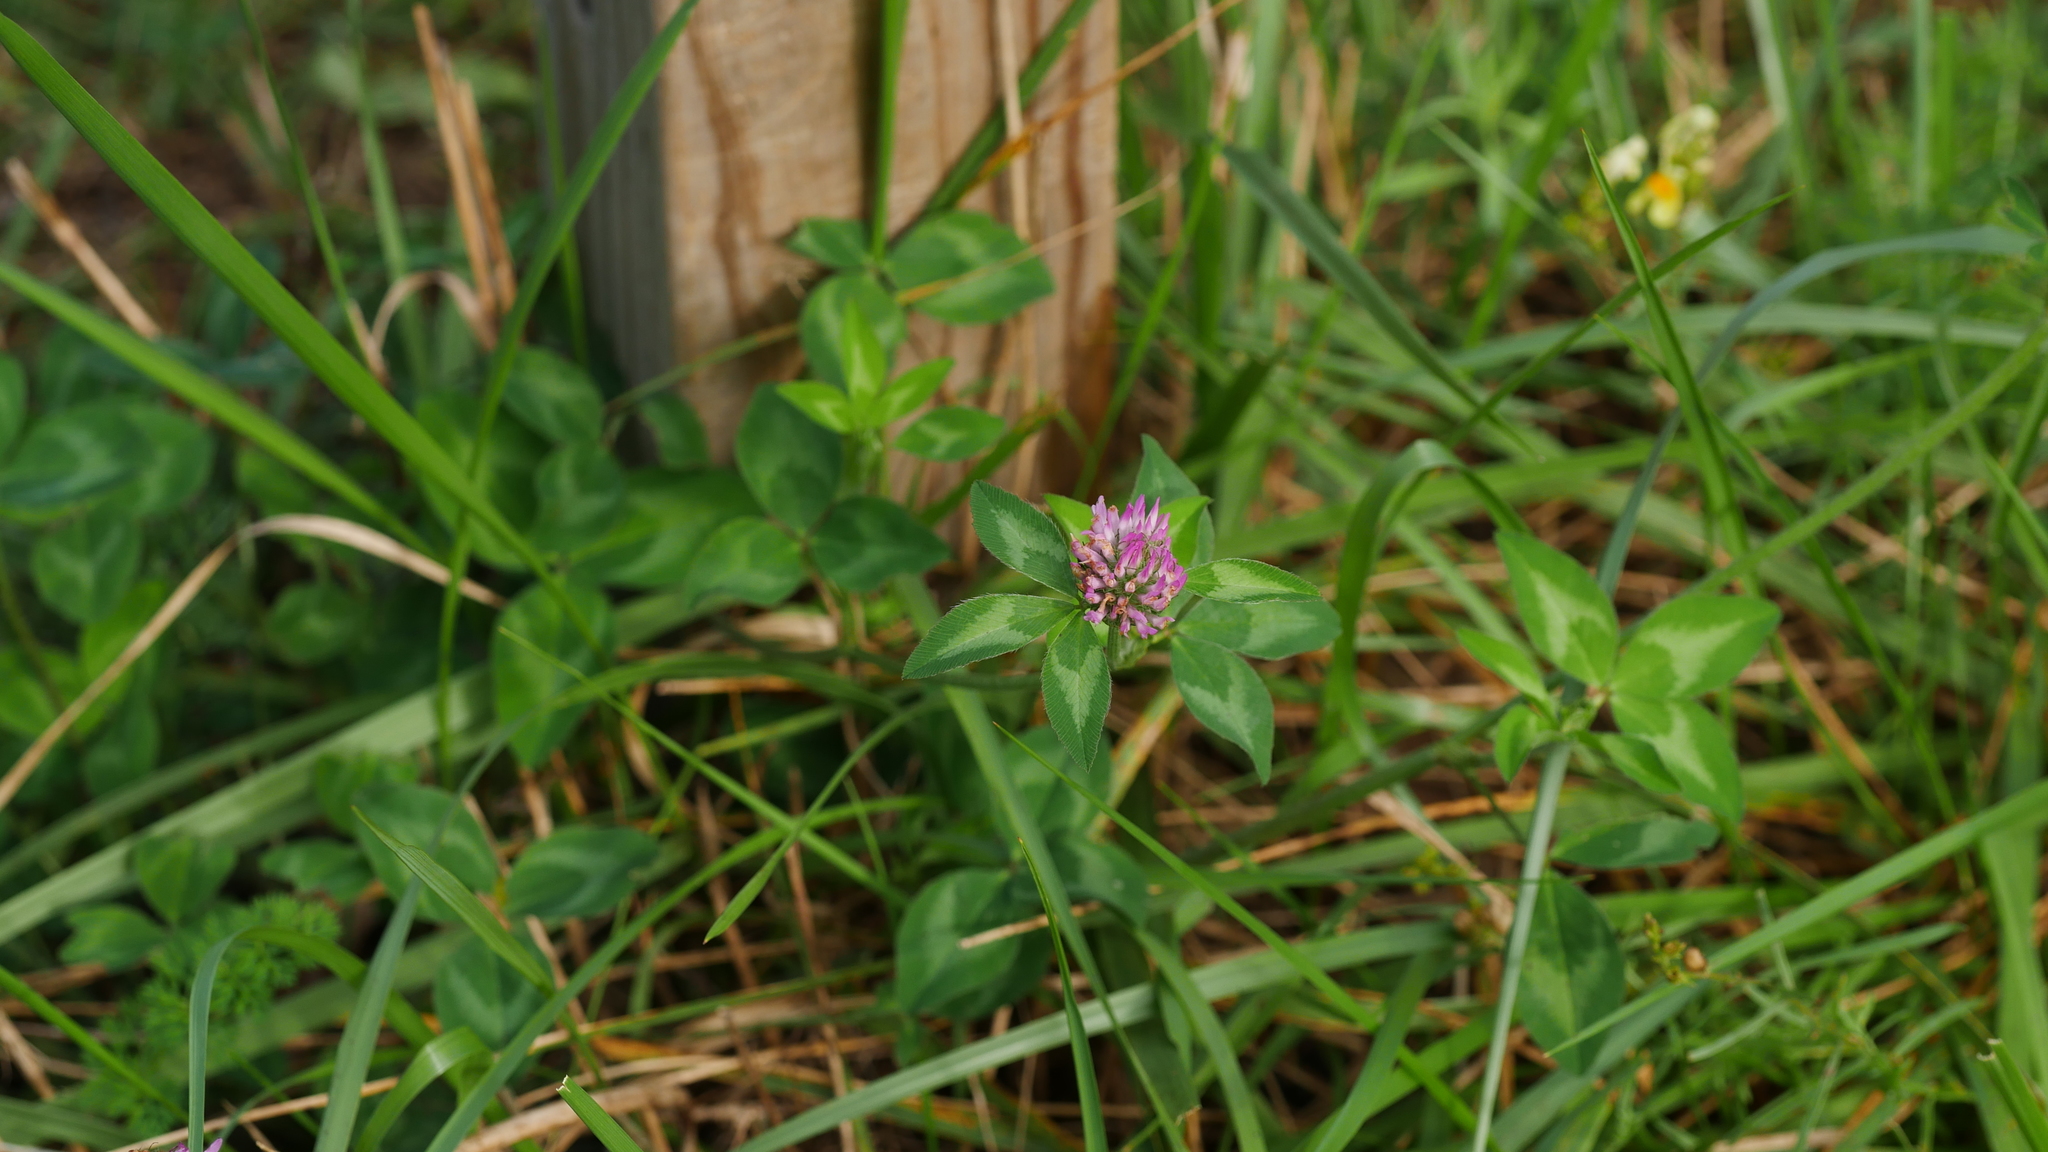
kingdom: Plantae
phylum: Tracheophyta
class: Magnoliopsida
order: Fabales
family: Fabaceae
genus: Trifolium
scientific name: Trifolium pratense
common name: Red clover
